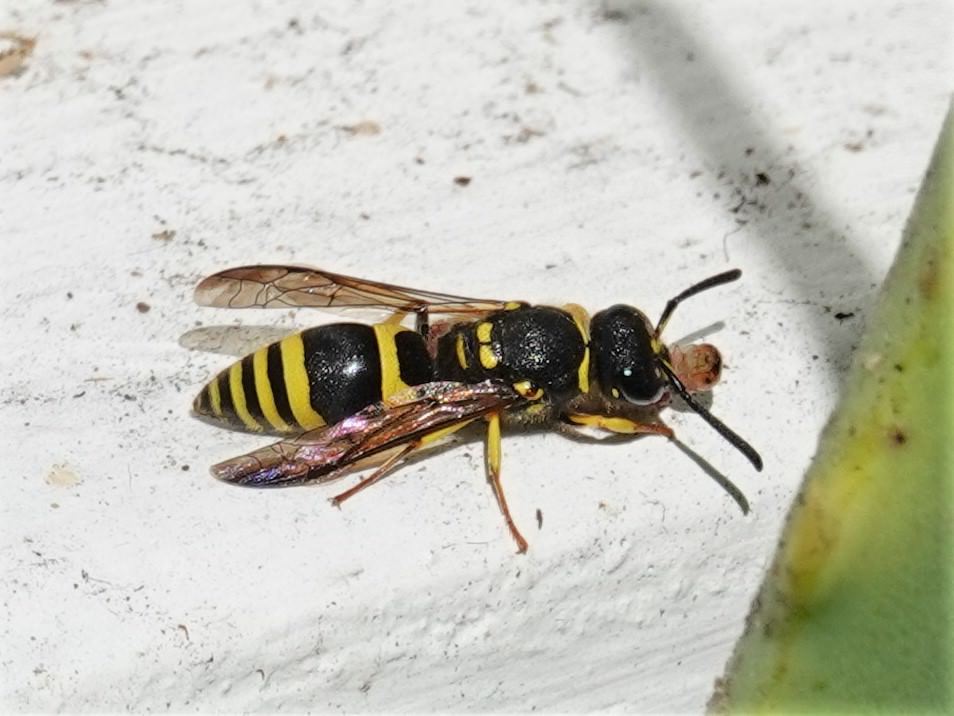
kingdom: Animalia
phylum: Arthropoda
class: Insecta
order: Hymenoptera
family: Vespidae
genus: Ancistrocerus
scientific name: Ancistrocerus gazella
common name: European tube wasp
